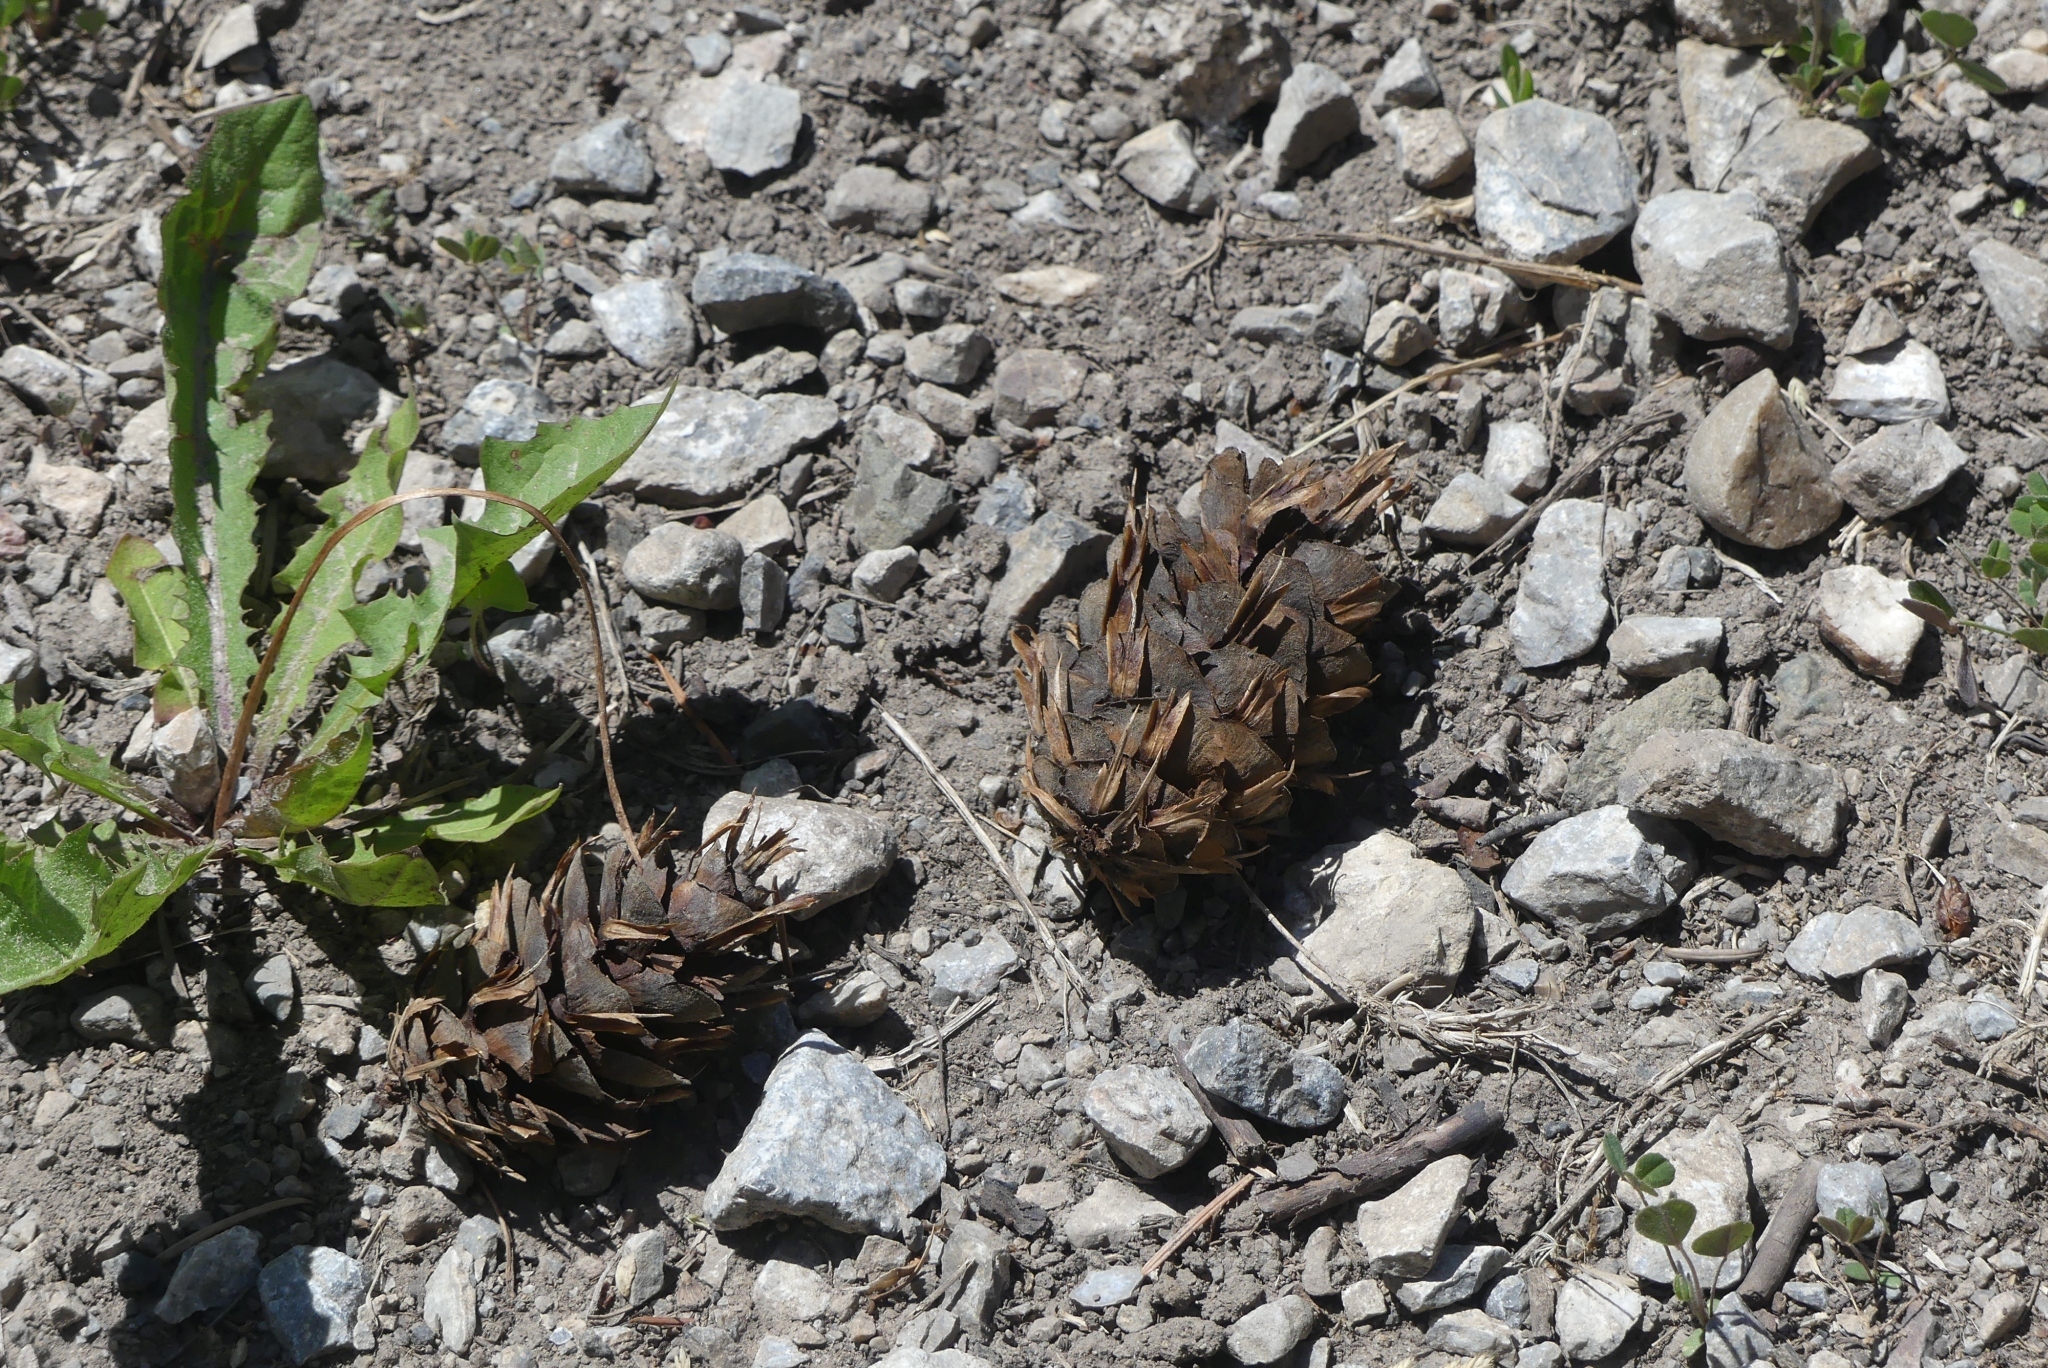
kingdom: Plantae
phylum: Tracheophyta
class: Pinopsida
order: Pinales
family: Pinaceae
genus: Pseudotsuga
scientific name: Pseudotsuga menziesii
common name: Douglas fir
